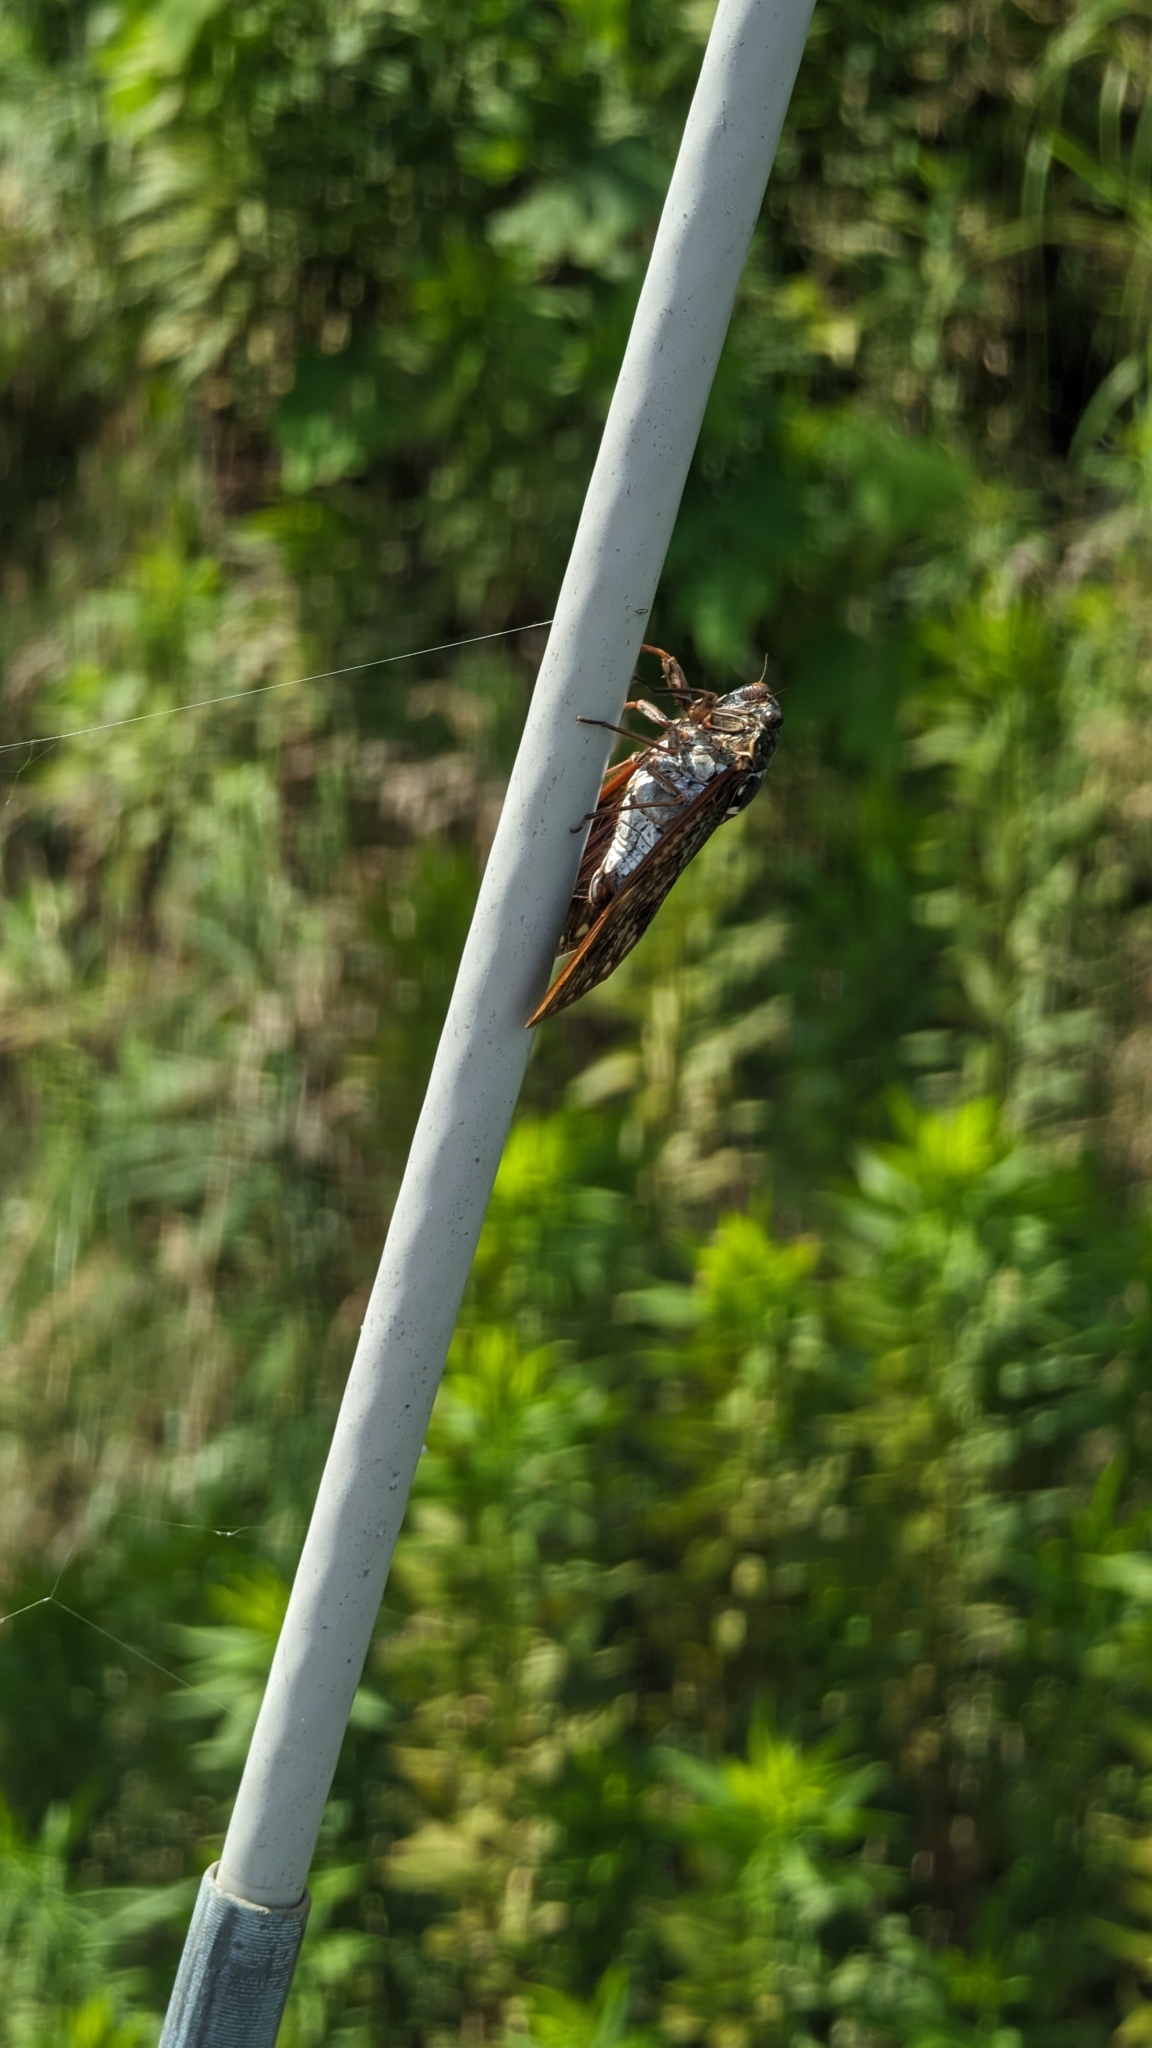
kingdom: Animalia
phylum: Arthropoda
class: Insecta
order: Hemiptera
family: Cicadidae
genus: Graptopsaltria
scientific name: Graptopsaltria nigrofuscata
